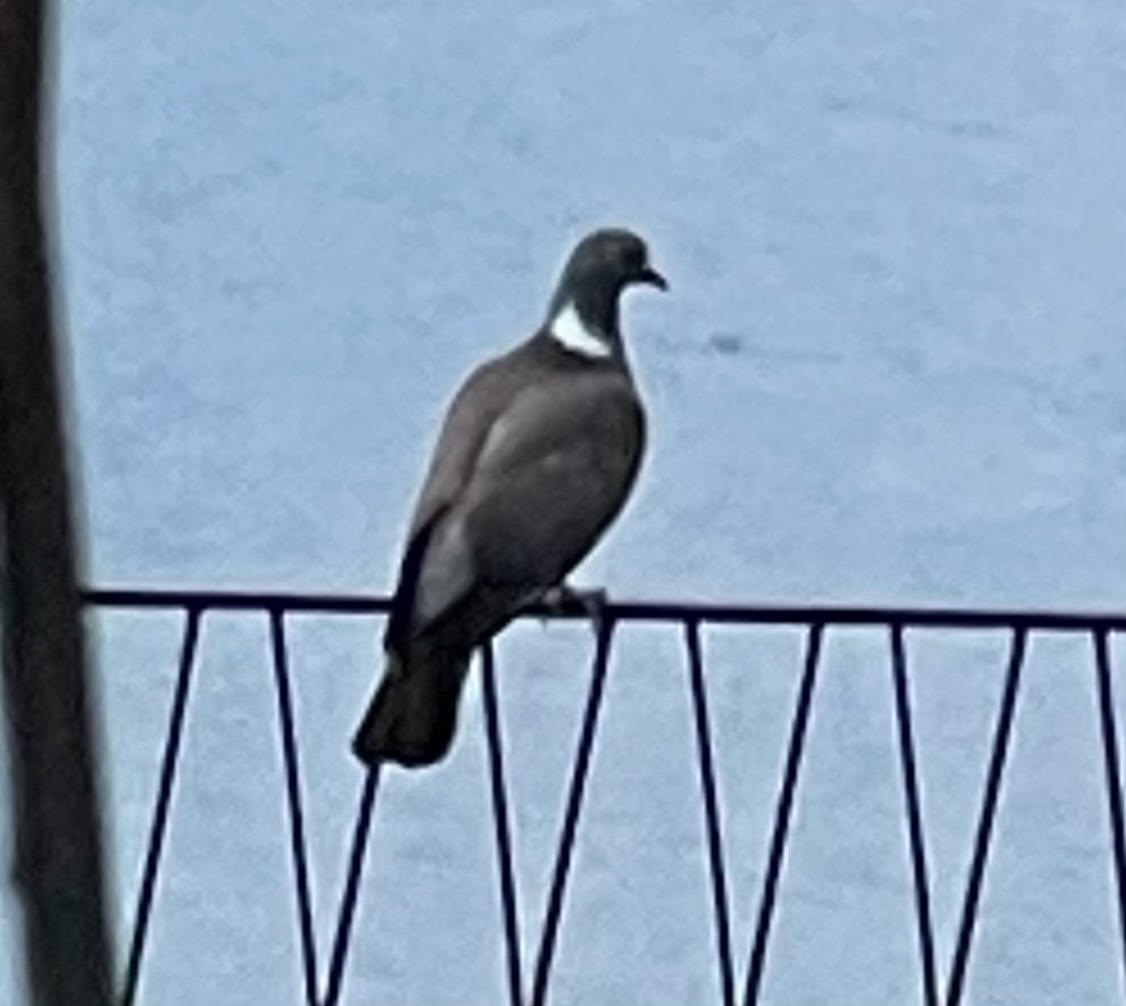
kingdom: Animalia
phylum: Chordata
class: Aves
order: Columbiformes
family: Columbidae
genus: Columba
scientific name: Columba palumbus
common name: Common wood pigeon
